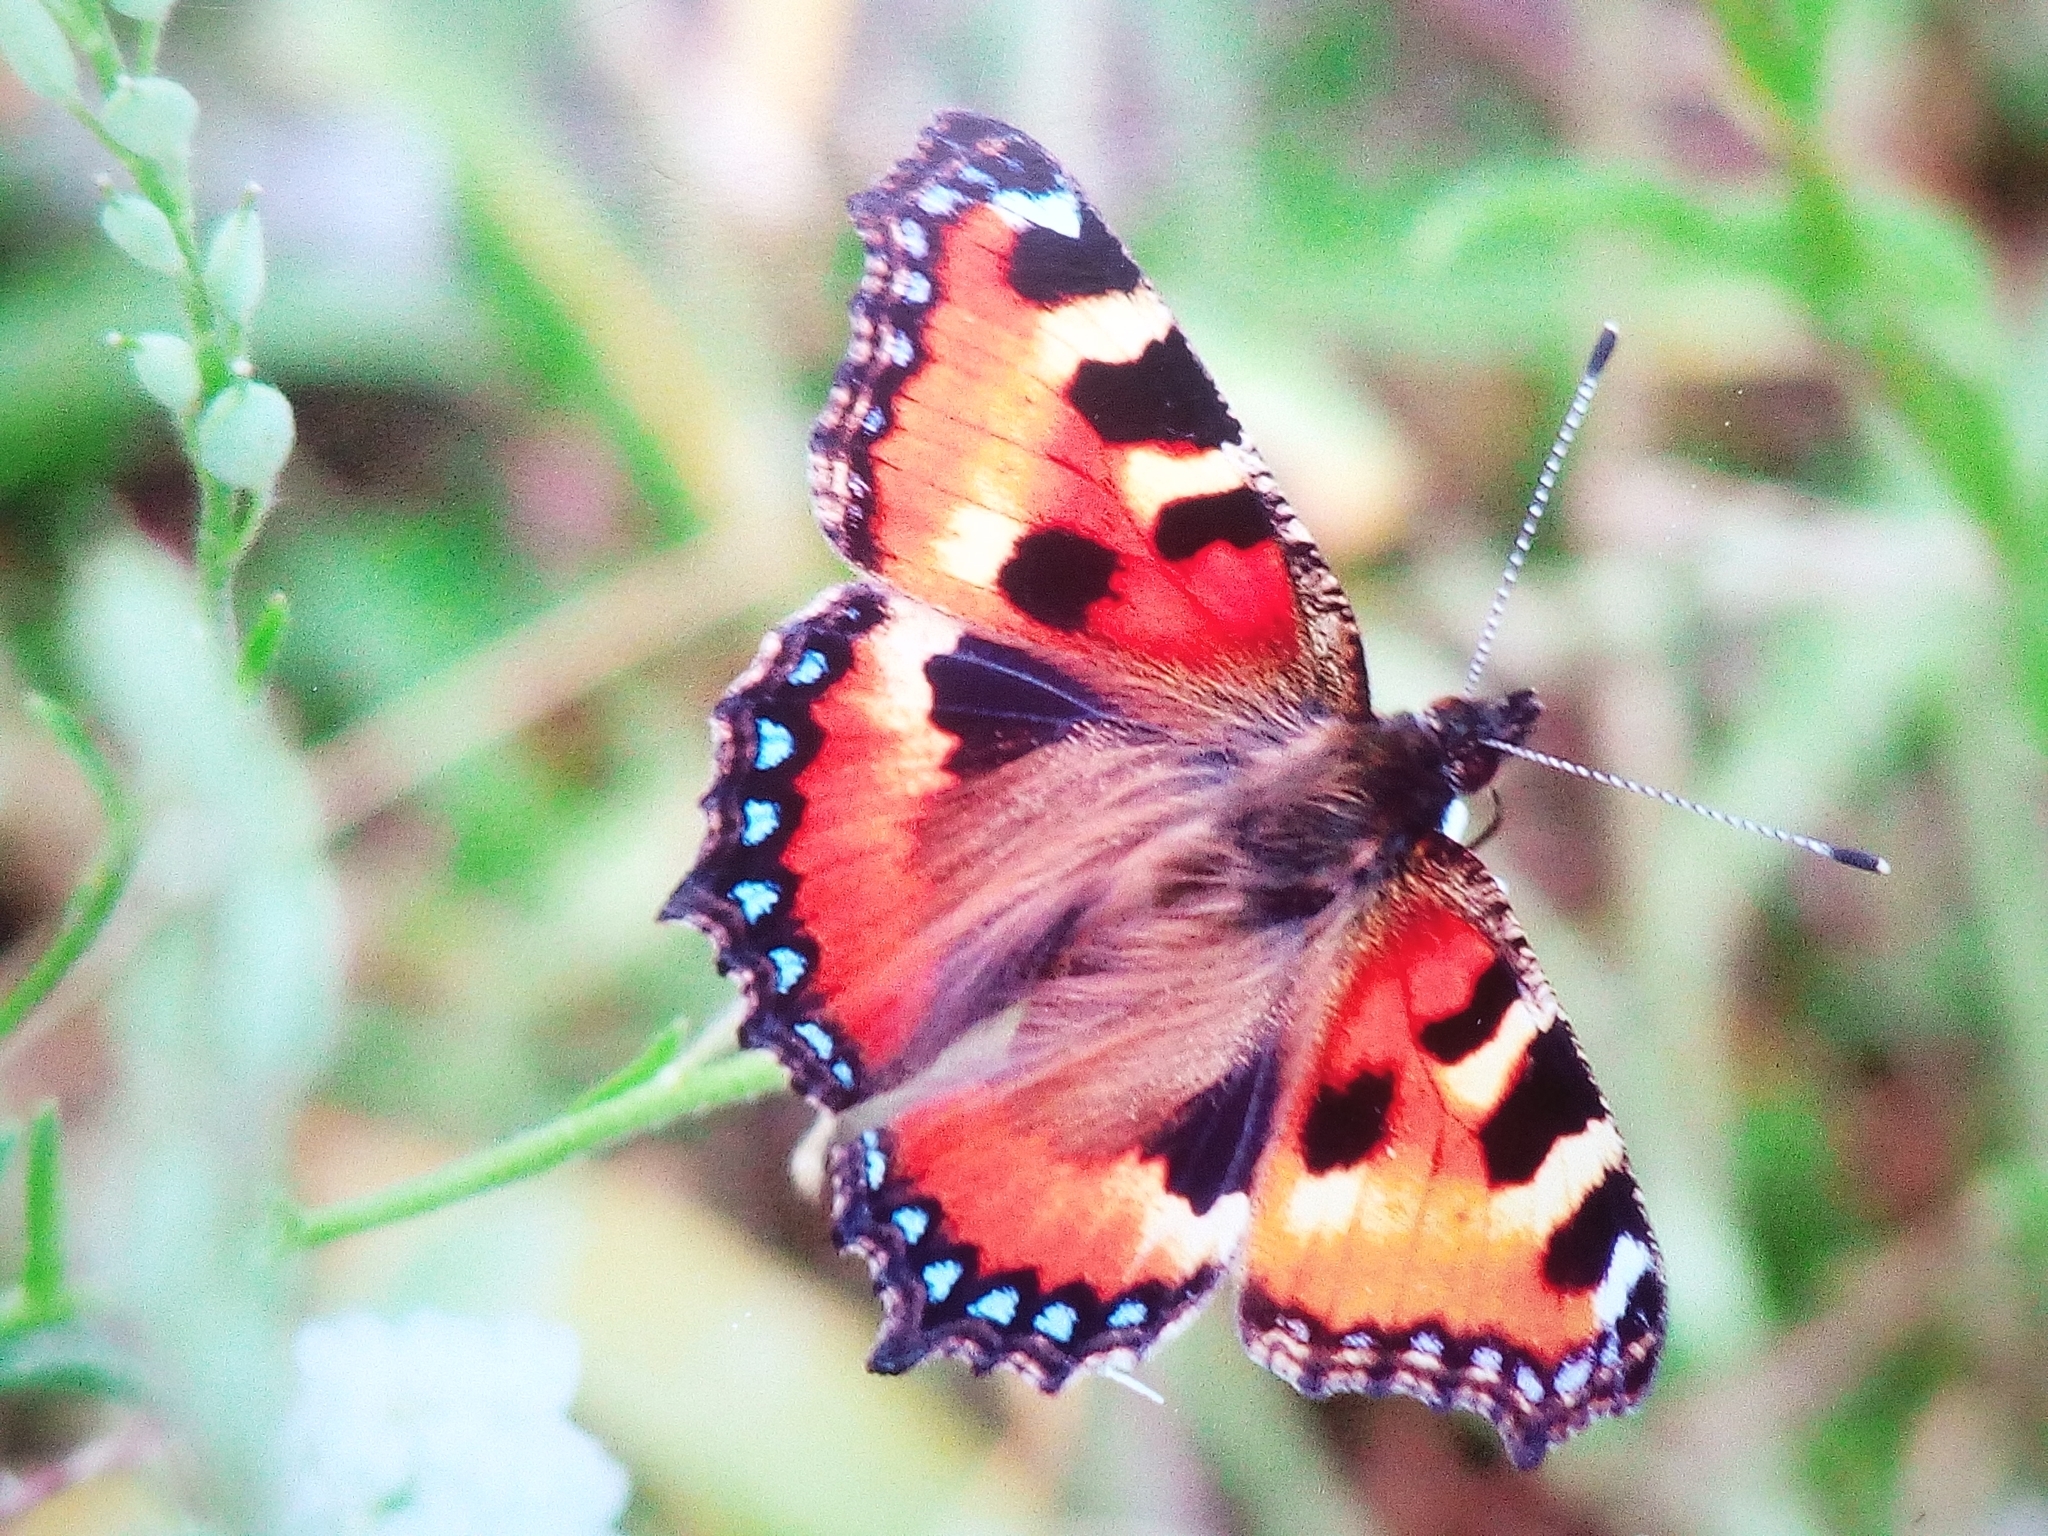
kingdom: Animalia
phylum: Arthropoda
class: Insecta
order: Lepidoptera
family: Nymphalidae
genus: Aglais
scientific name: Aglais urticae
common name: Small tortoiseshell
